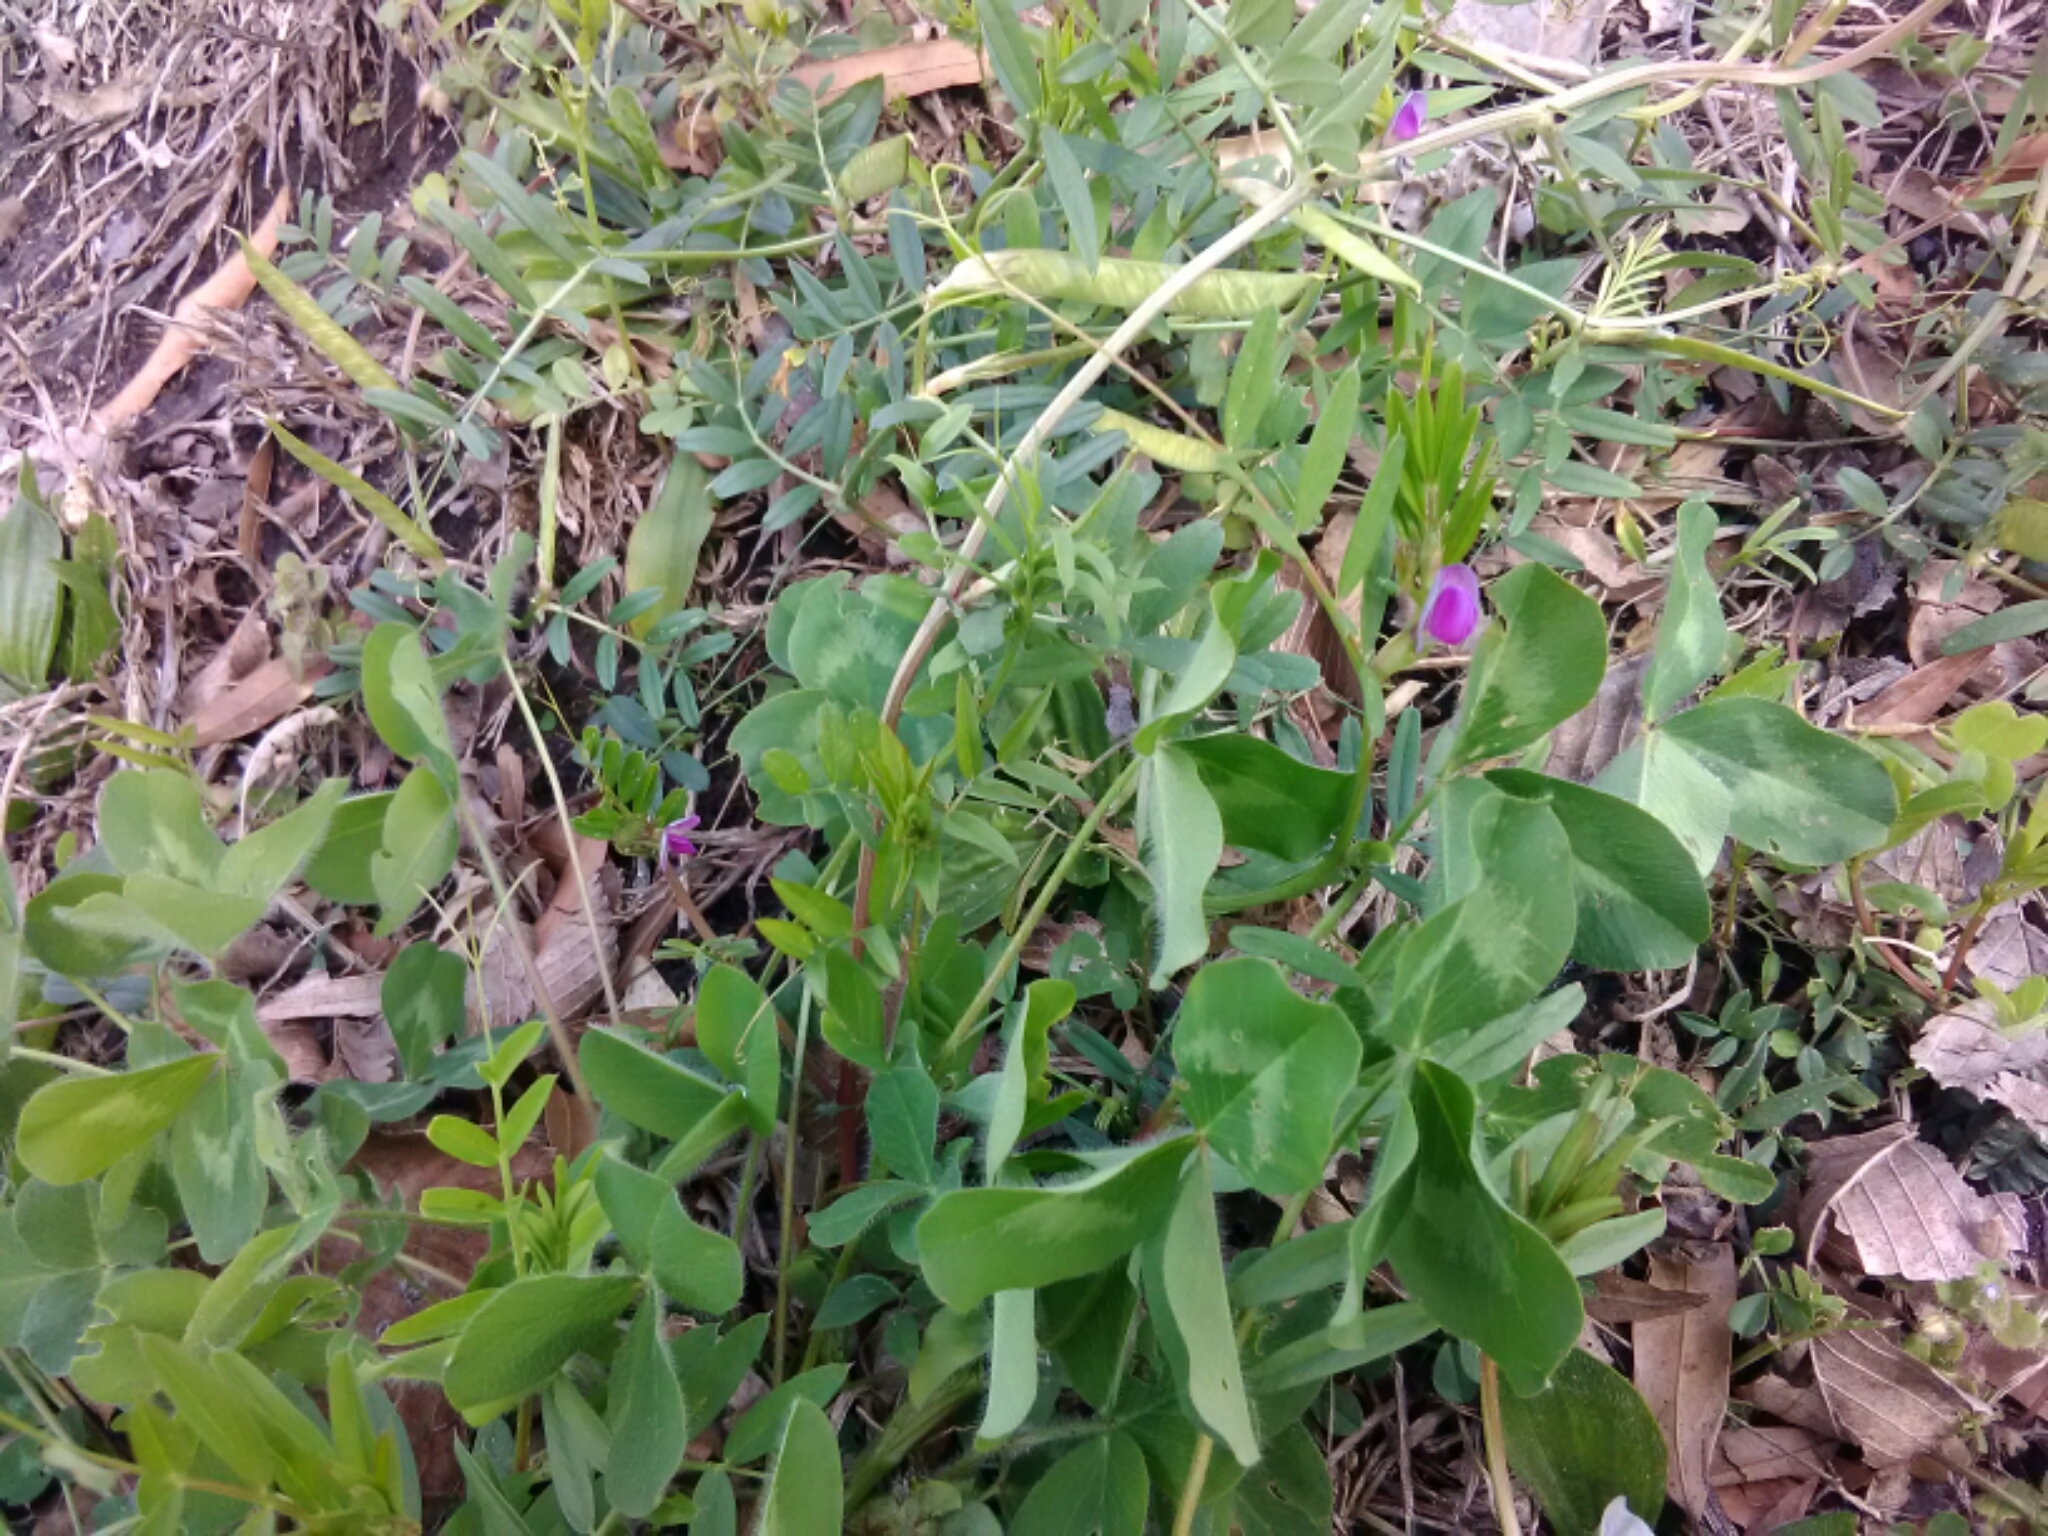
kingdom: Plantae
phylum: Tracheophyta
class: Magnoliopsida
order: Fabales
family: Fabaceae
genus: Vicia
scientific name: Vicia sativa
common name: Garden vetch
